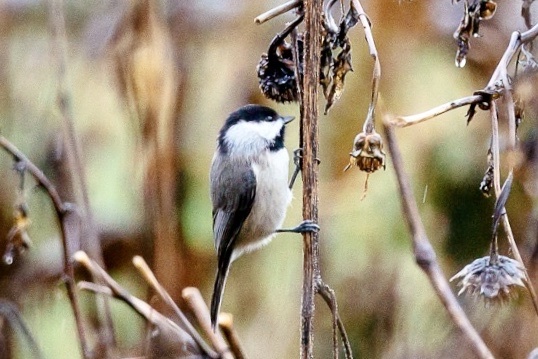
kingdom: Animalia
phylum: Chordata
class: Aves
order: Passeriformes
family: Paridae
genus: Poecile
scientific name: Poecile carolinensis
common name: Carolina chickadee
